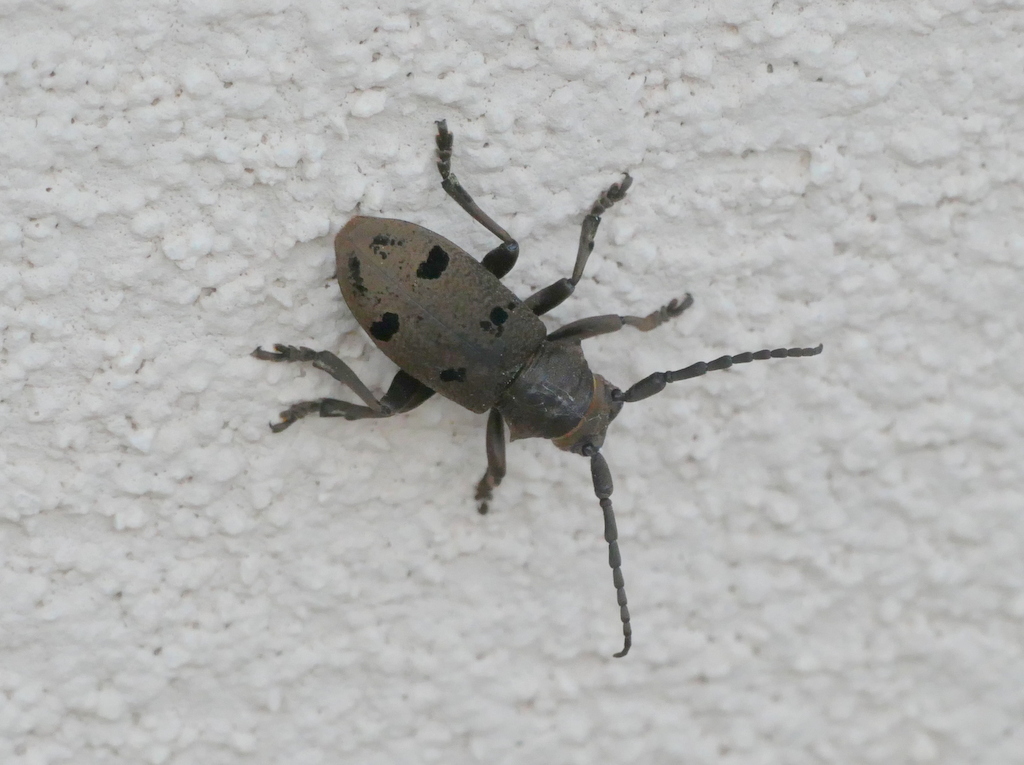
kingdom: Animalia
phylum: Arthropoda
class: Insecta
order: Coleoptera
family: Cerambycidae
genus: Herophila
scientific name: Herophila tristis
